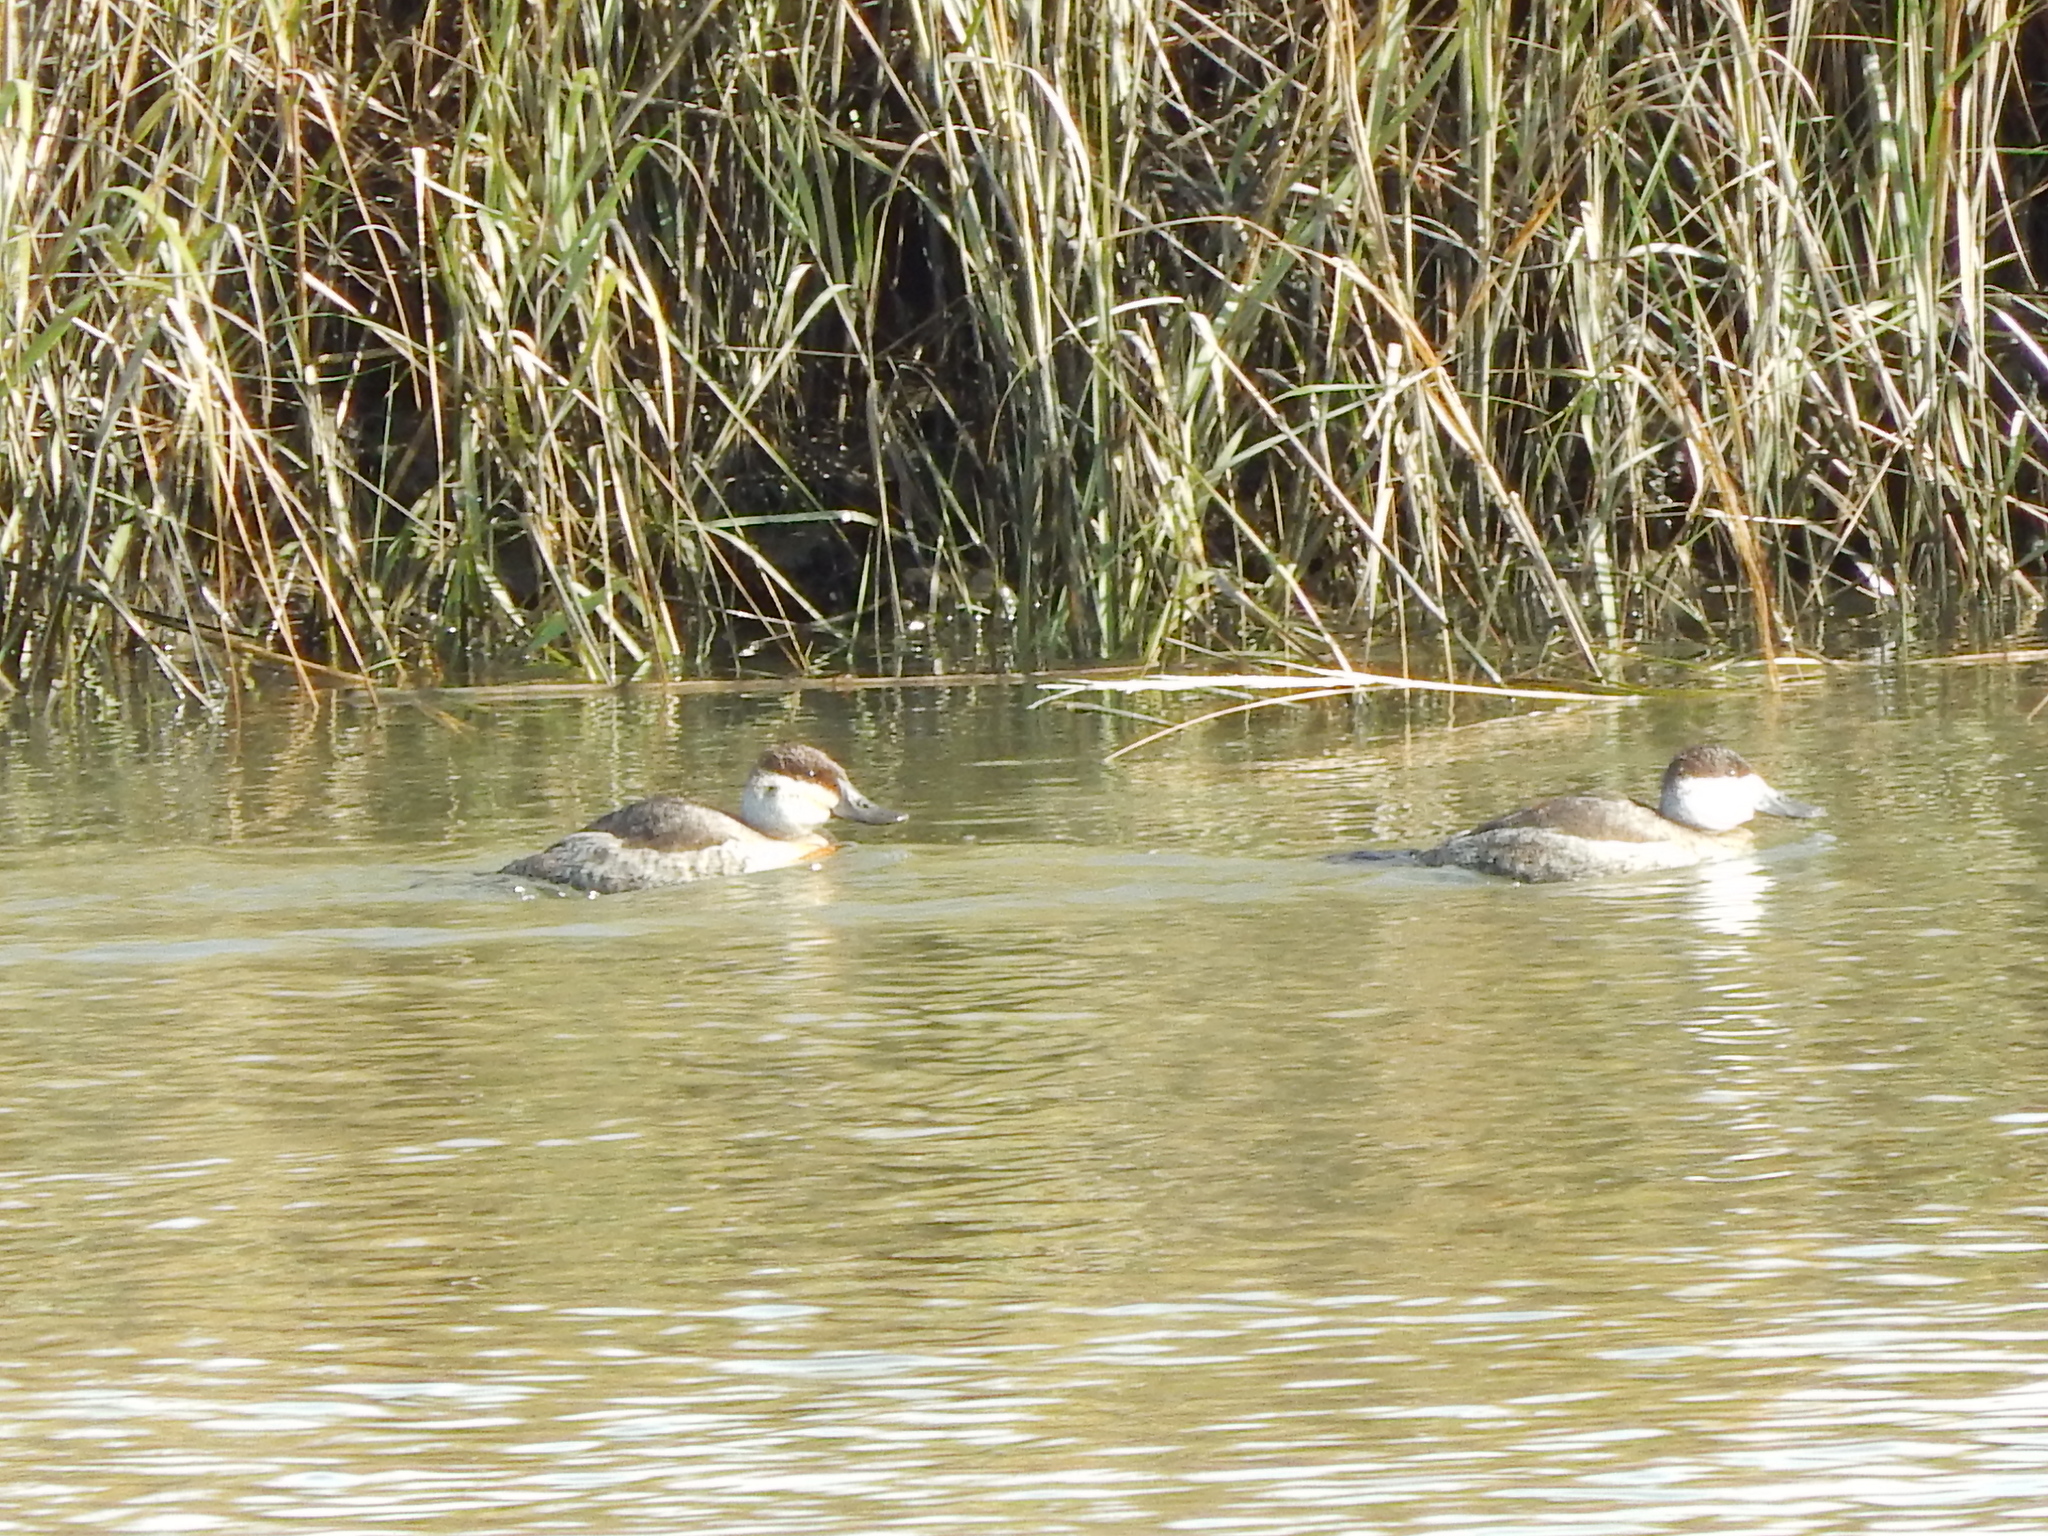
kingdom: Animalia
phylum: Chordata
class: Aves
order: Anseriformes
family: Anatidae
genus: Oxyura
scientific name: Oxyura jamaicensis
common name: Ruddy duck
